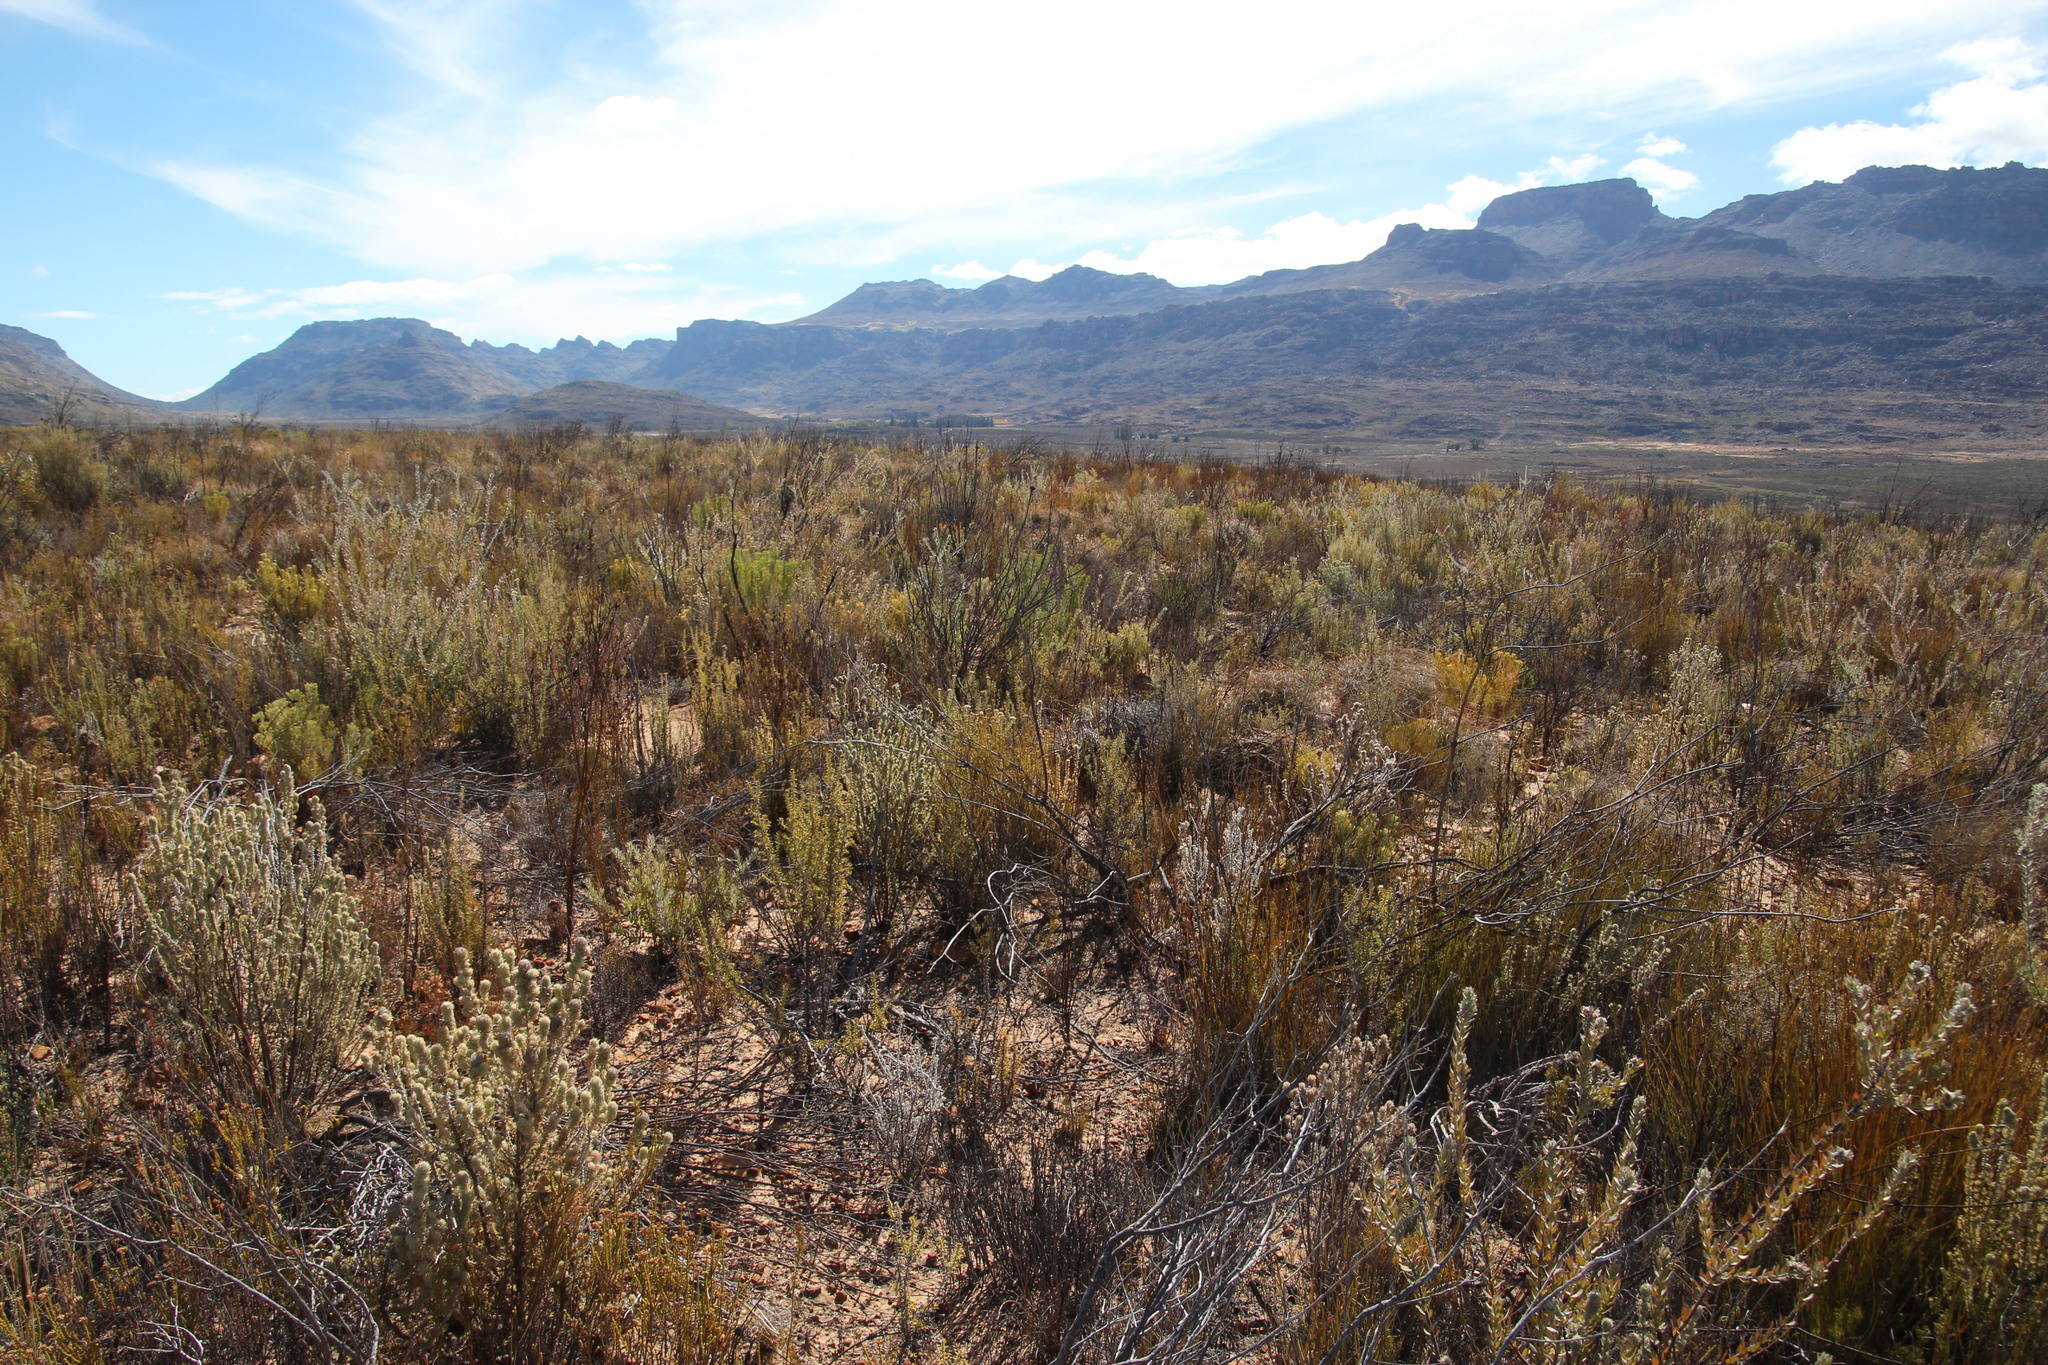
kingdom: Plantae
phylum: Tracheophyta
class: Magnoliopsida
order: Proteales
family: Proteaceae
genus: Leucospermum
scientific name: Leucospermum calligerum
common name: Arid pincushion
